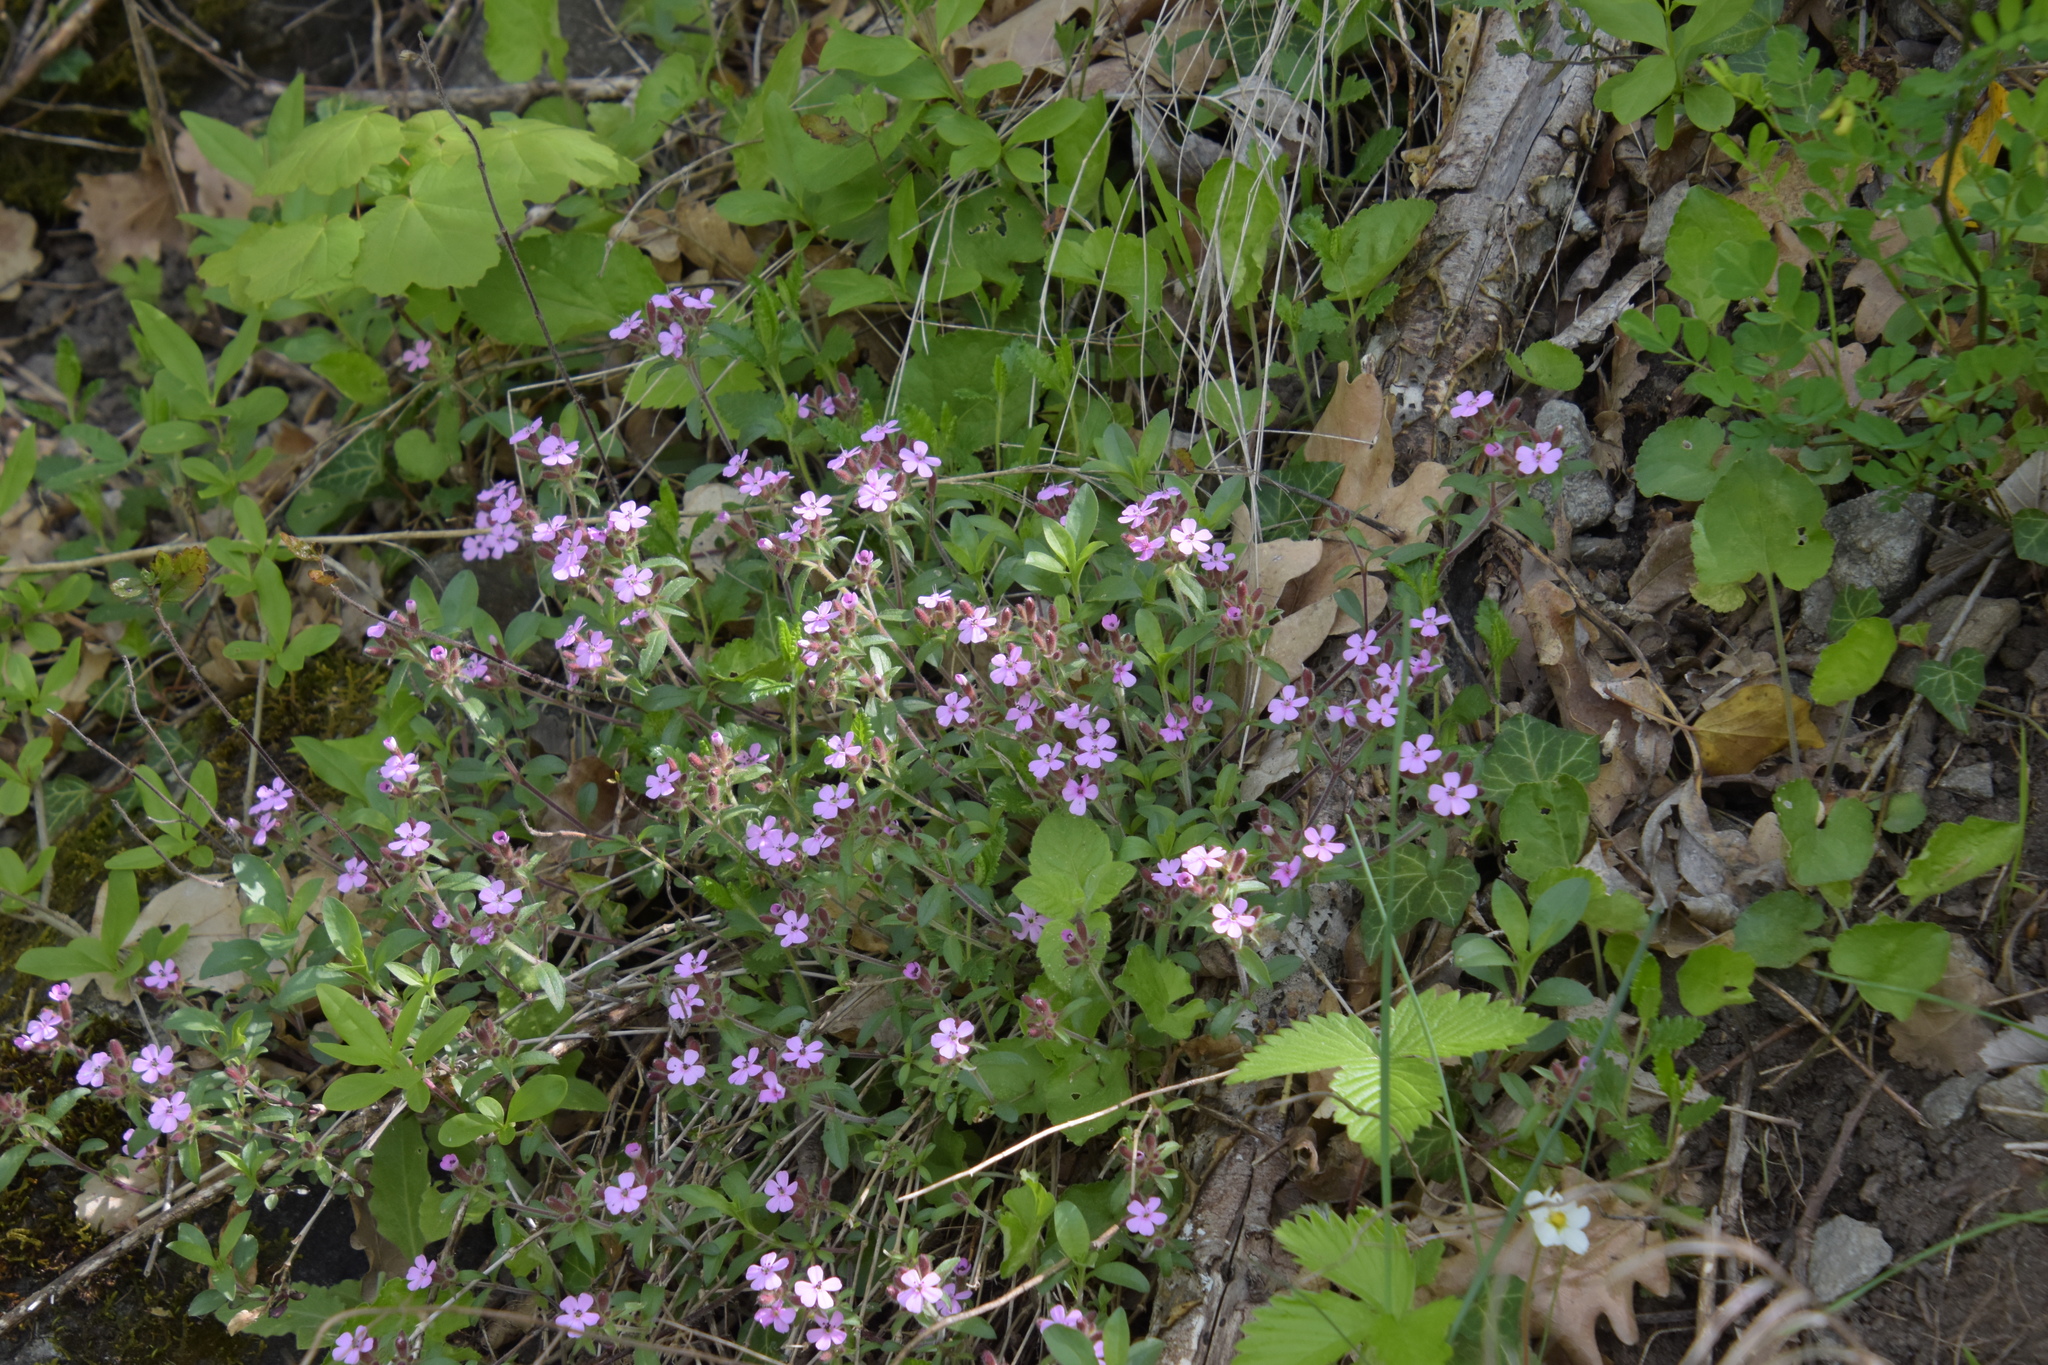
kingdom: Plantae
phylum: Tracheophyta
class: Magnoliopsida
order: Caryophyllales
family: Caryophyllaceae
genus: Saponaria
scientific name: Saponaria ocymoides
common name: Rock soapwort
